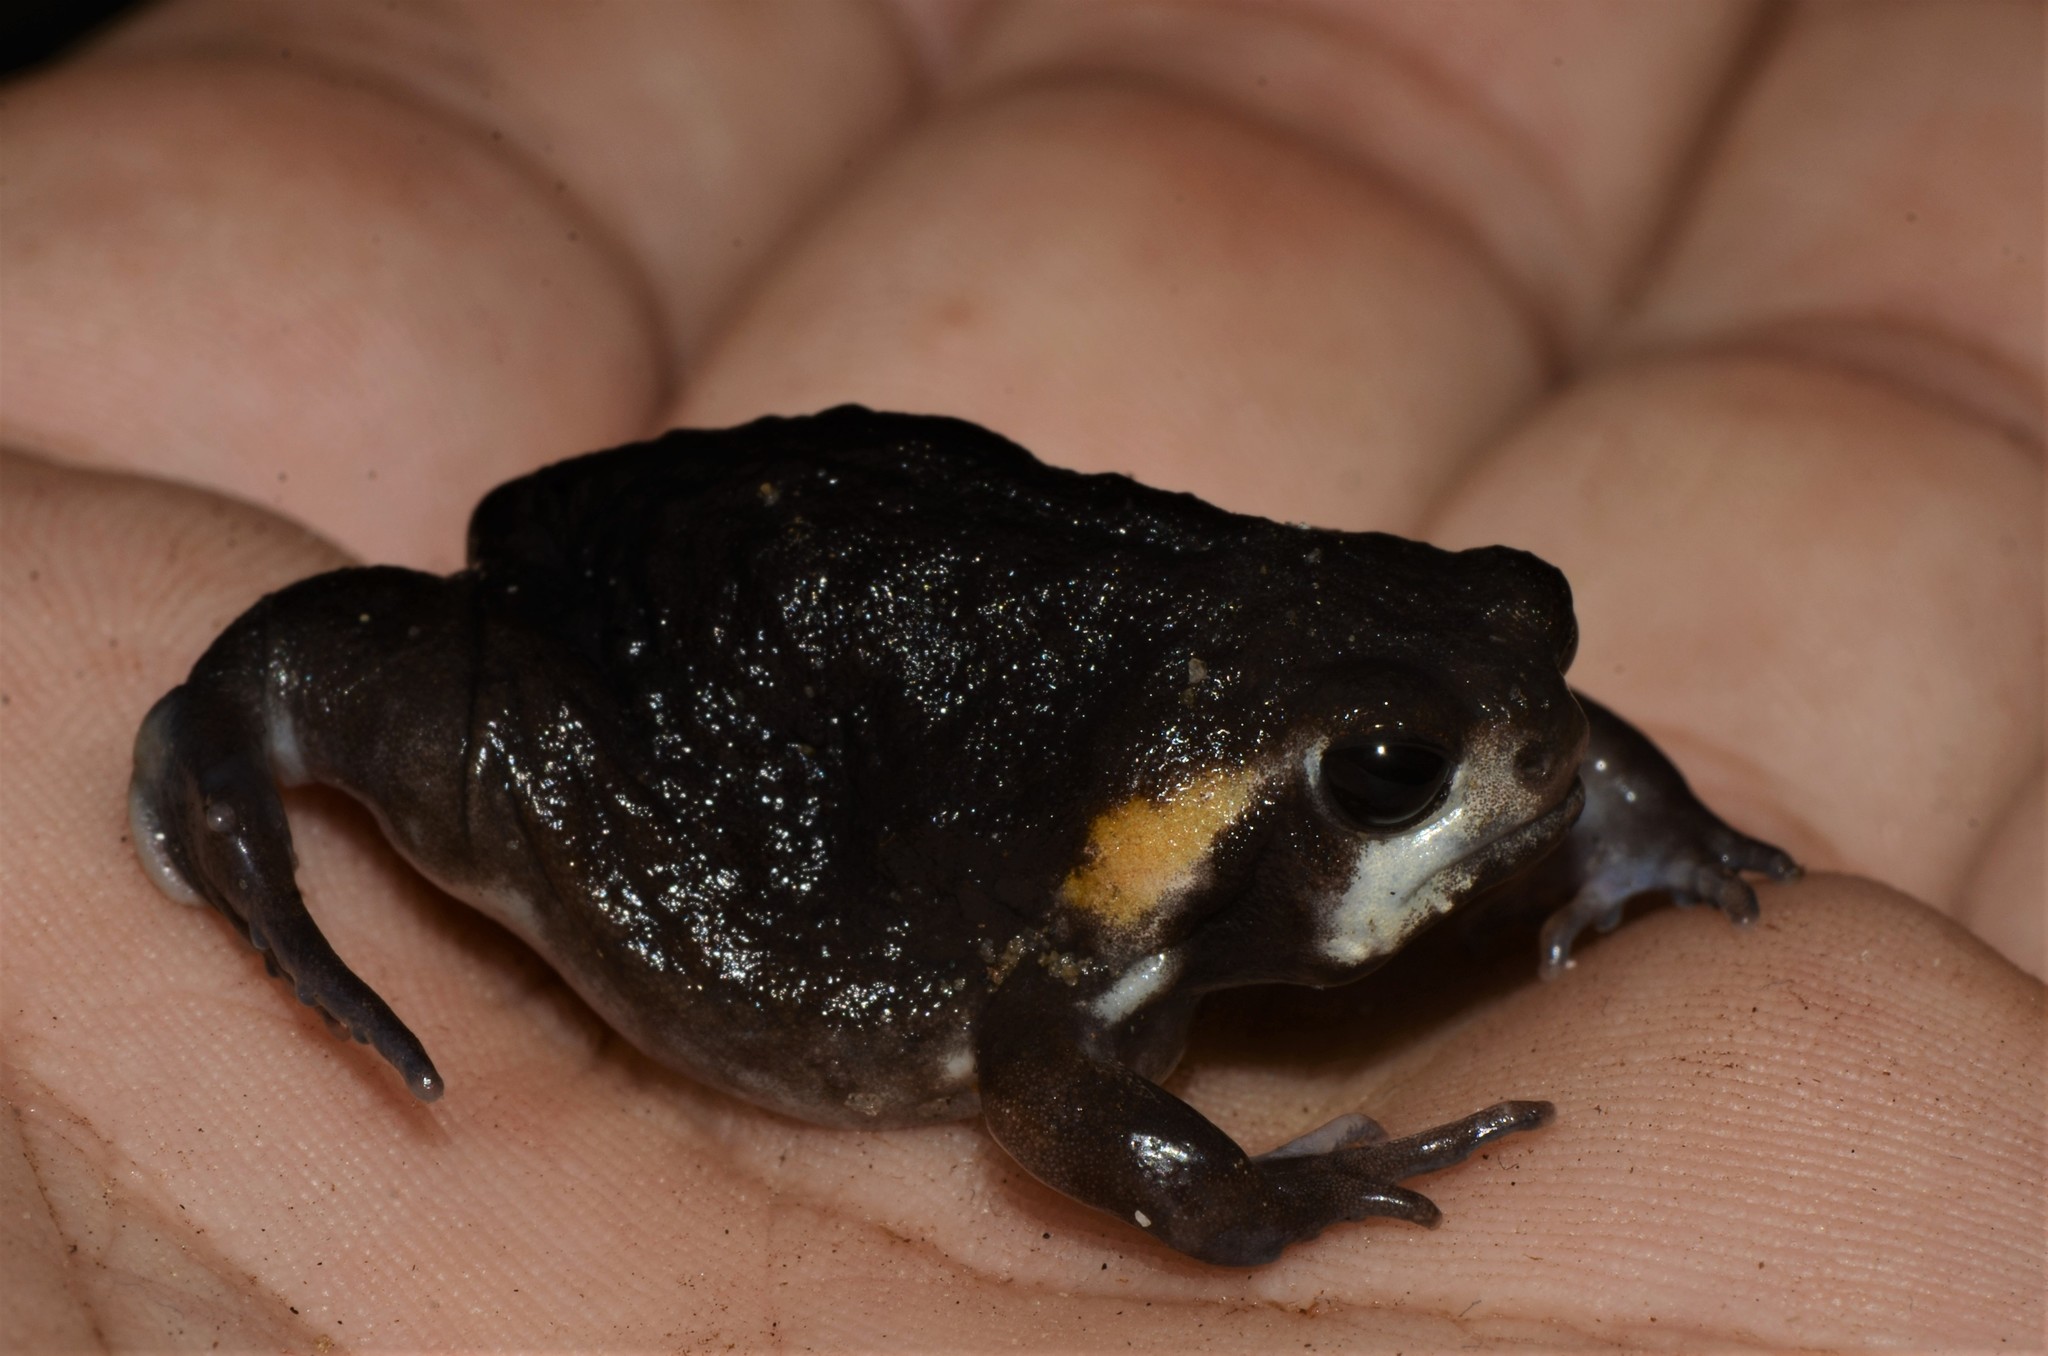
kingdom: Animalia
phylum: Chordata
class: Amphibia
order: Anura
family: Brevicipitidae
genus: Breviceps
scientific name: Breviceps mossambicus
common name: Mozambique rain frog
